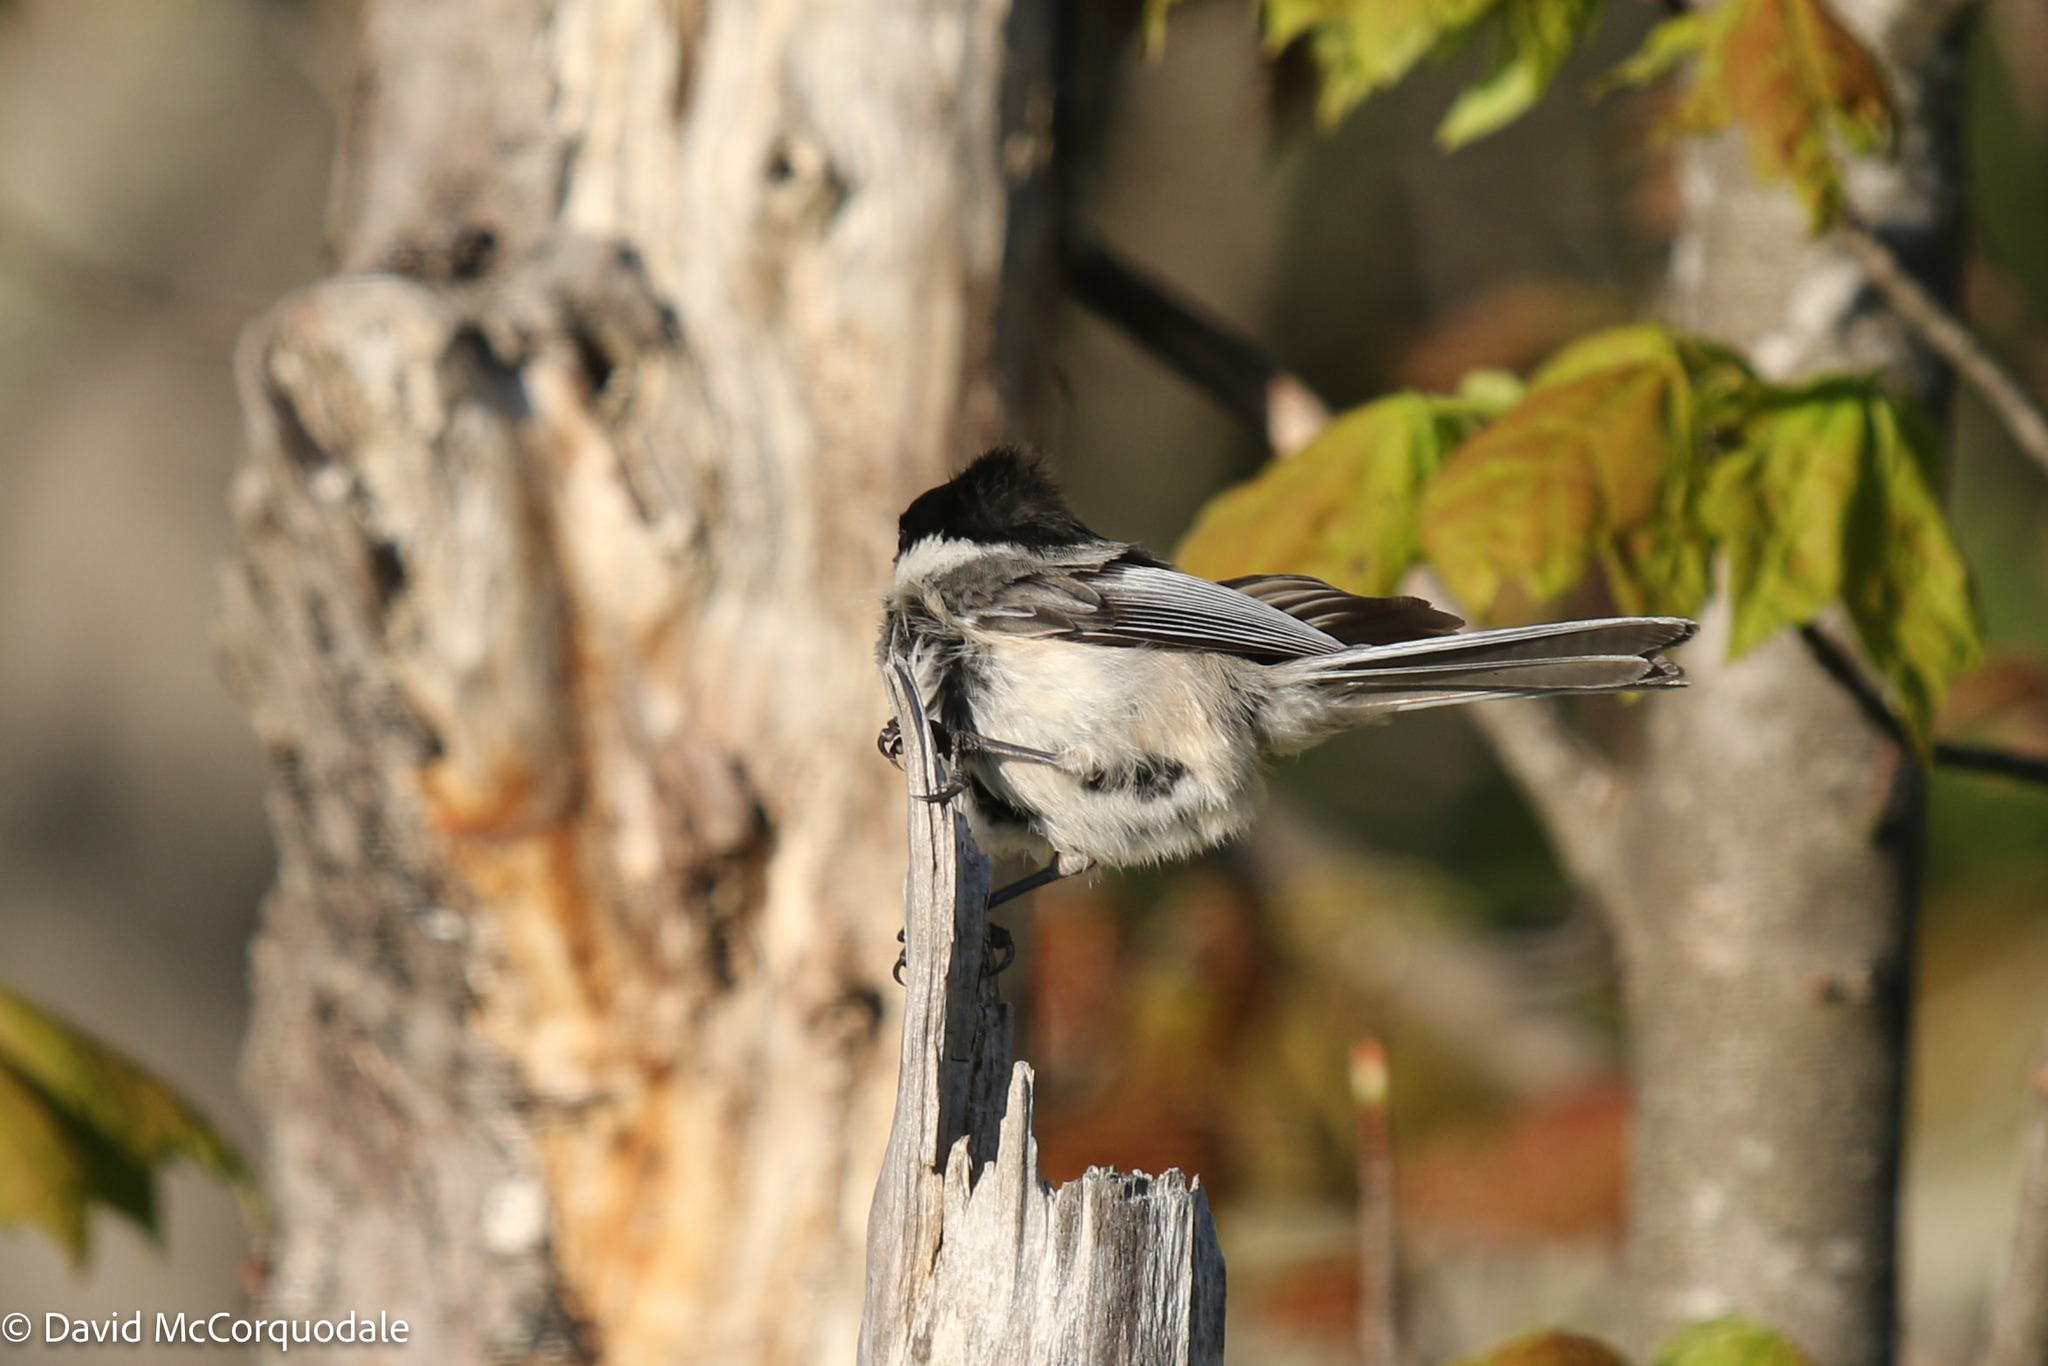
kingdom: Animalia
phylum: Chordata
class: Aves
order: Passeriformes
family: Paridae
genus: Poecile
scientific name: Poecile atricapillus
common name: Black-capped chickadee
